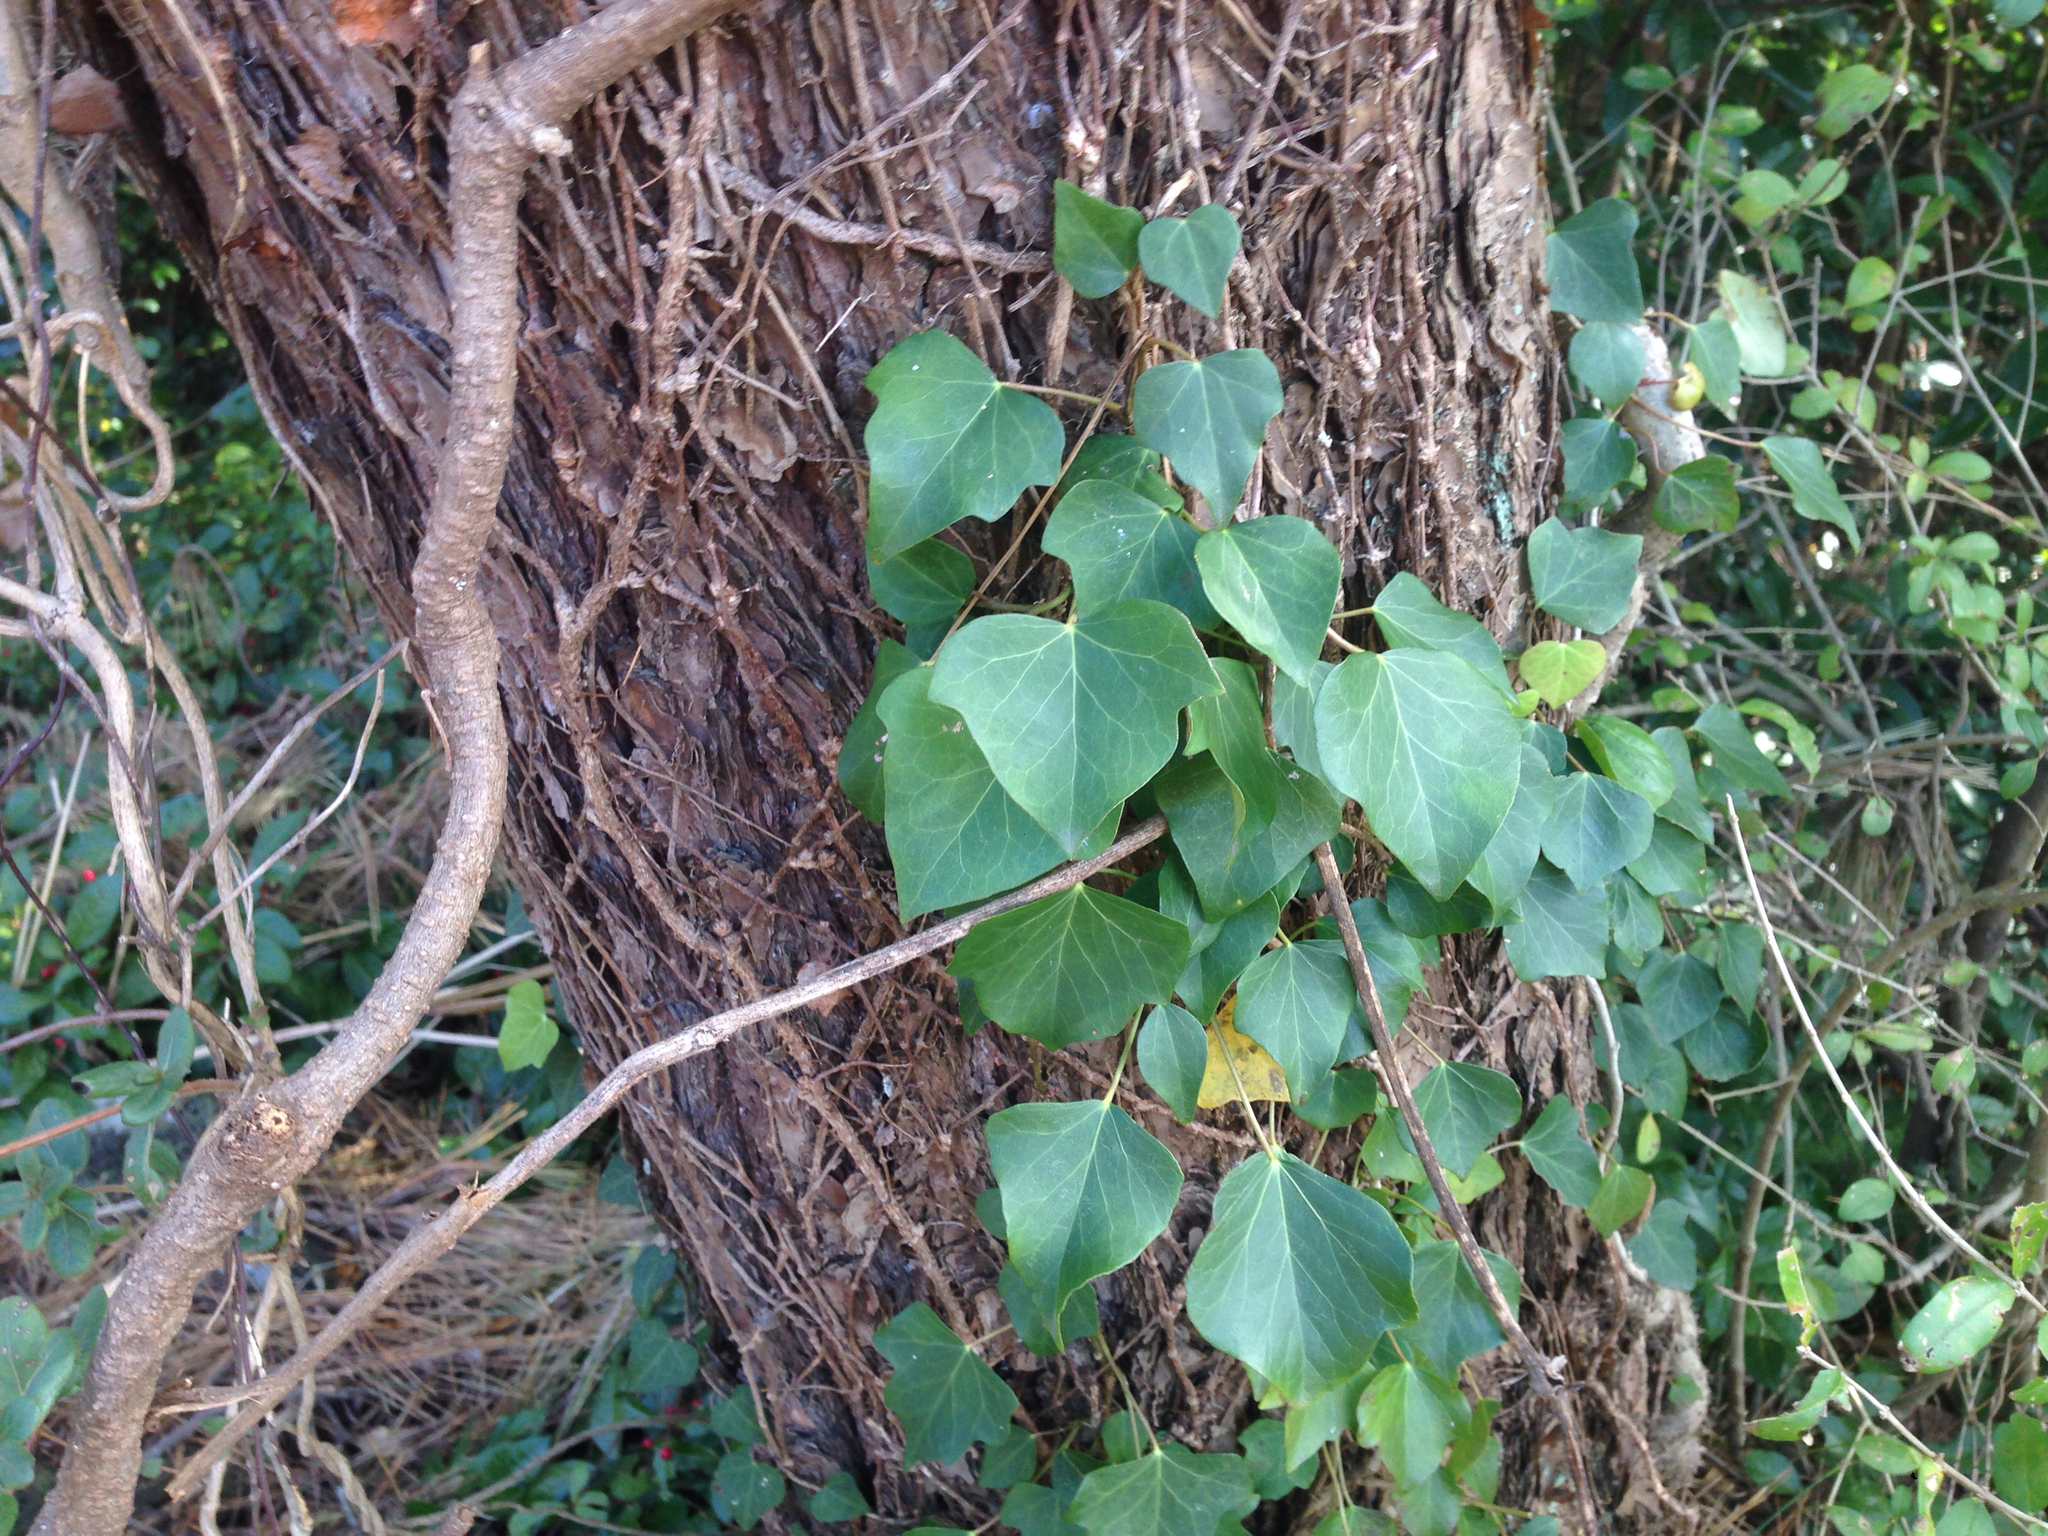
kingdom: Plantae
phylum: Tracheophyta
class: Magnoliopsida
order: Apiales
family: Araliaceae
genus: Hedera
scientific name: Hedera helix
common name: Ivy
